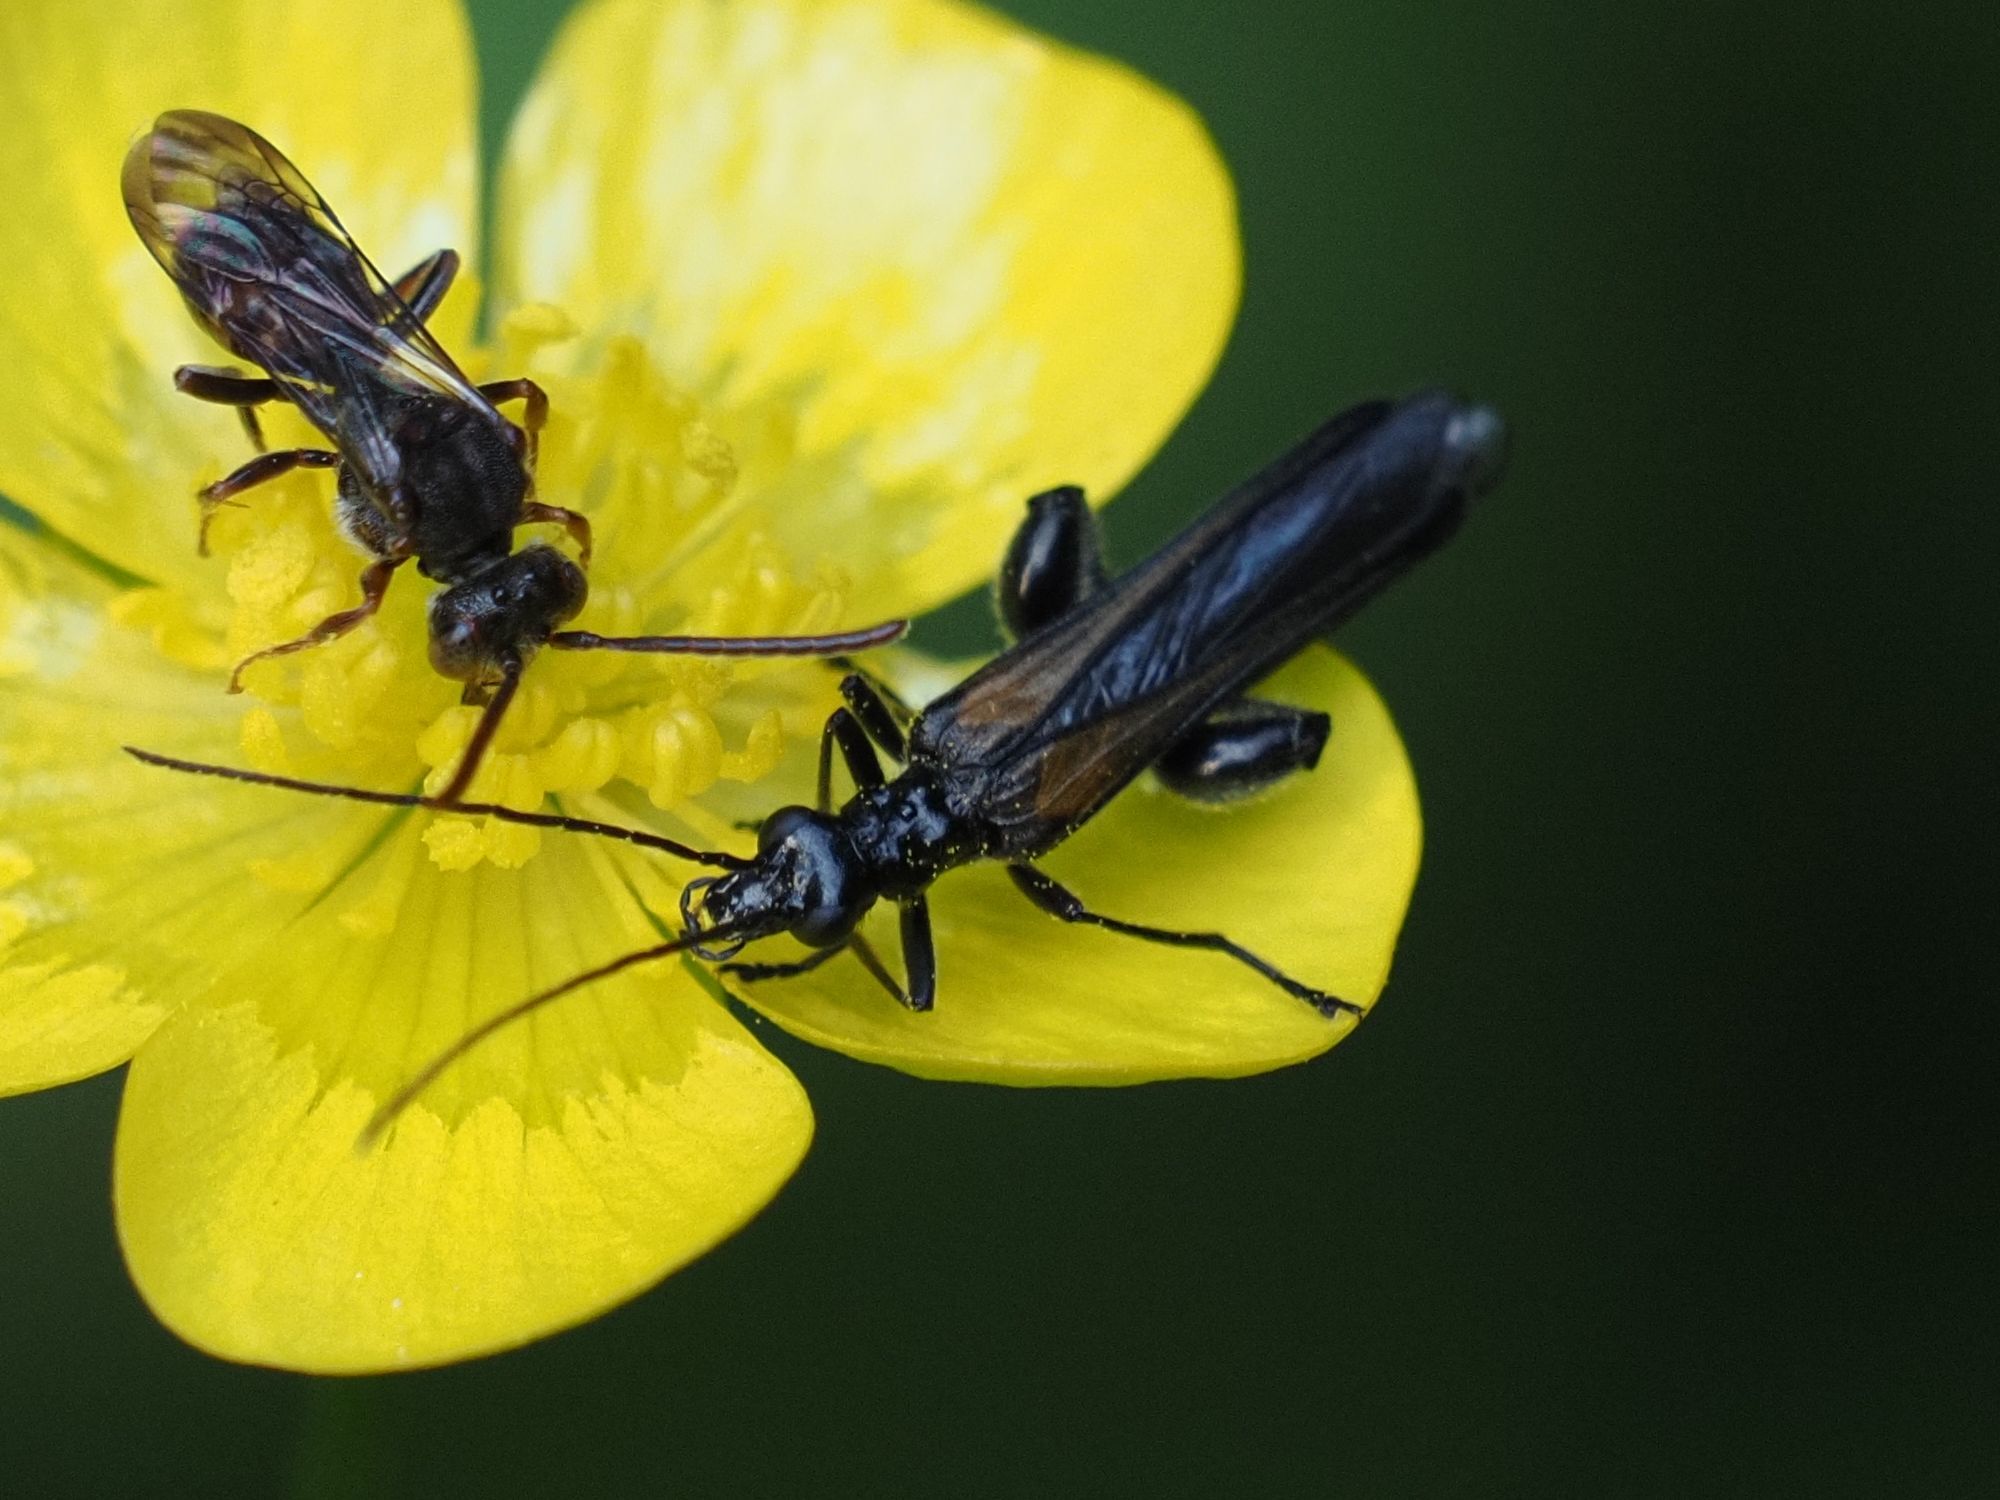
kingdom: Animalia
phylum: Arthropoda
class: Insecta
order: Coleoptera
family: Oedemeridae
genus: Oedemera
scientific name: Oedemera pthysica
